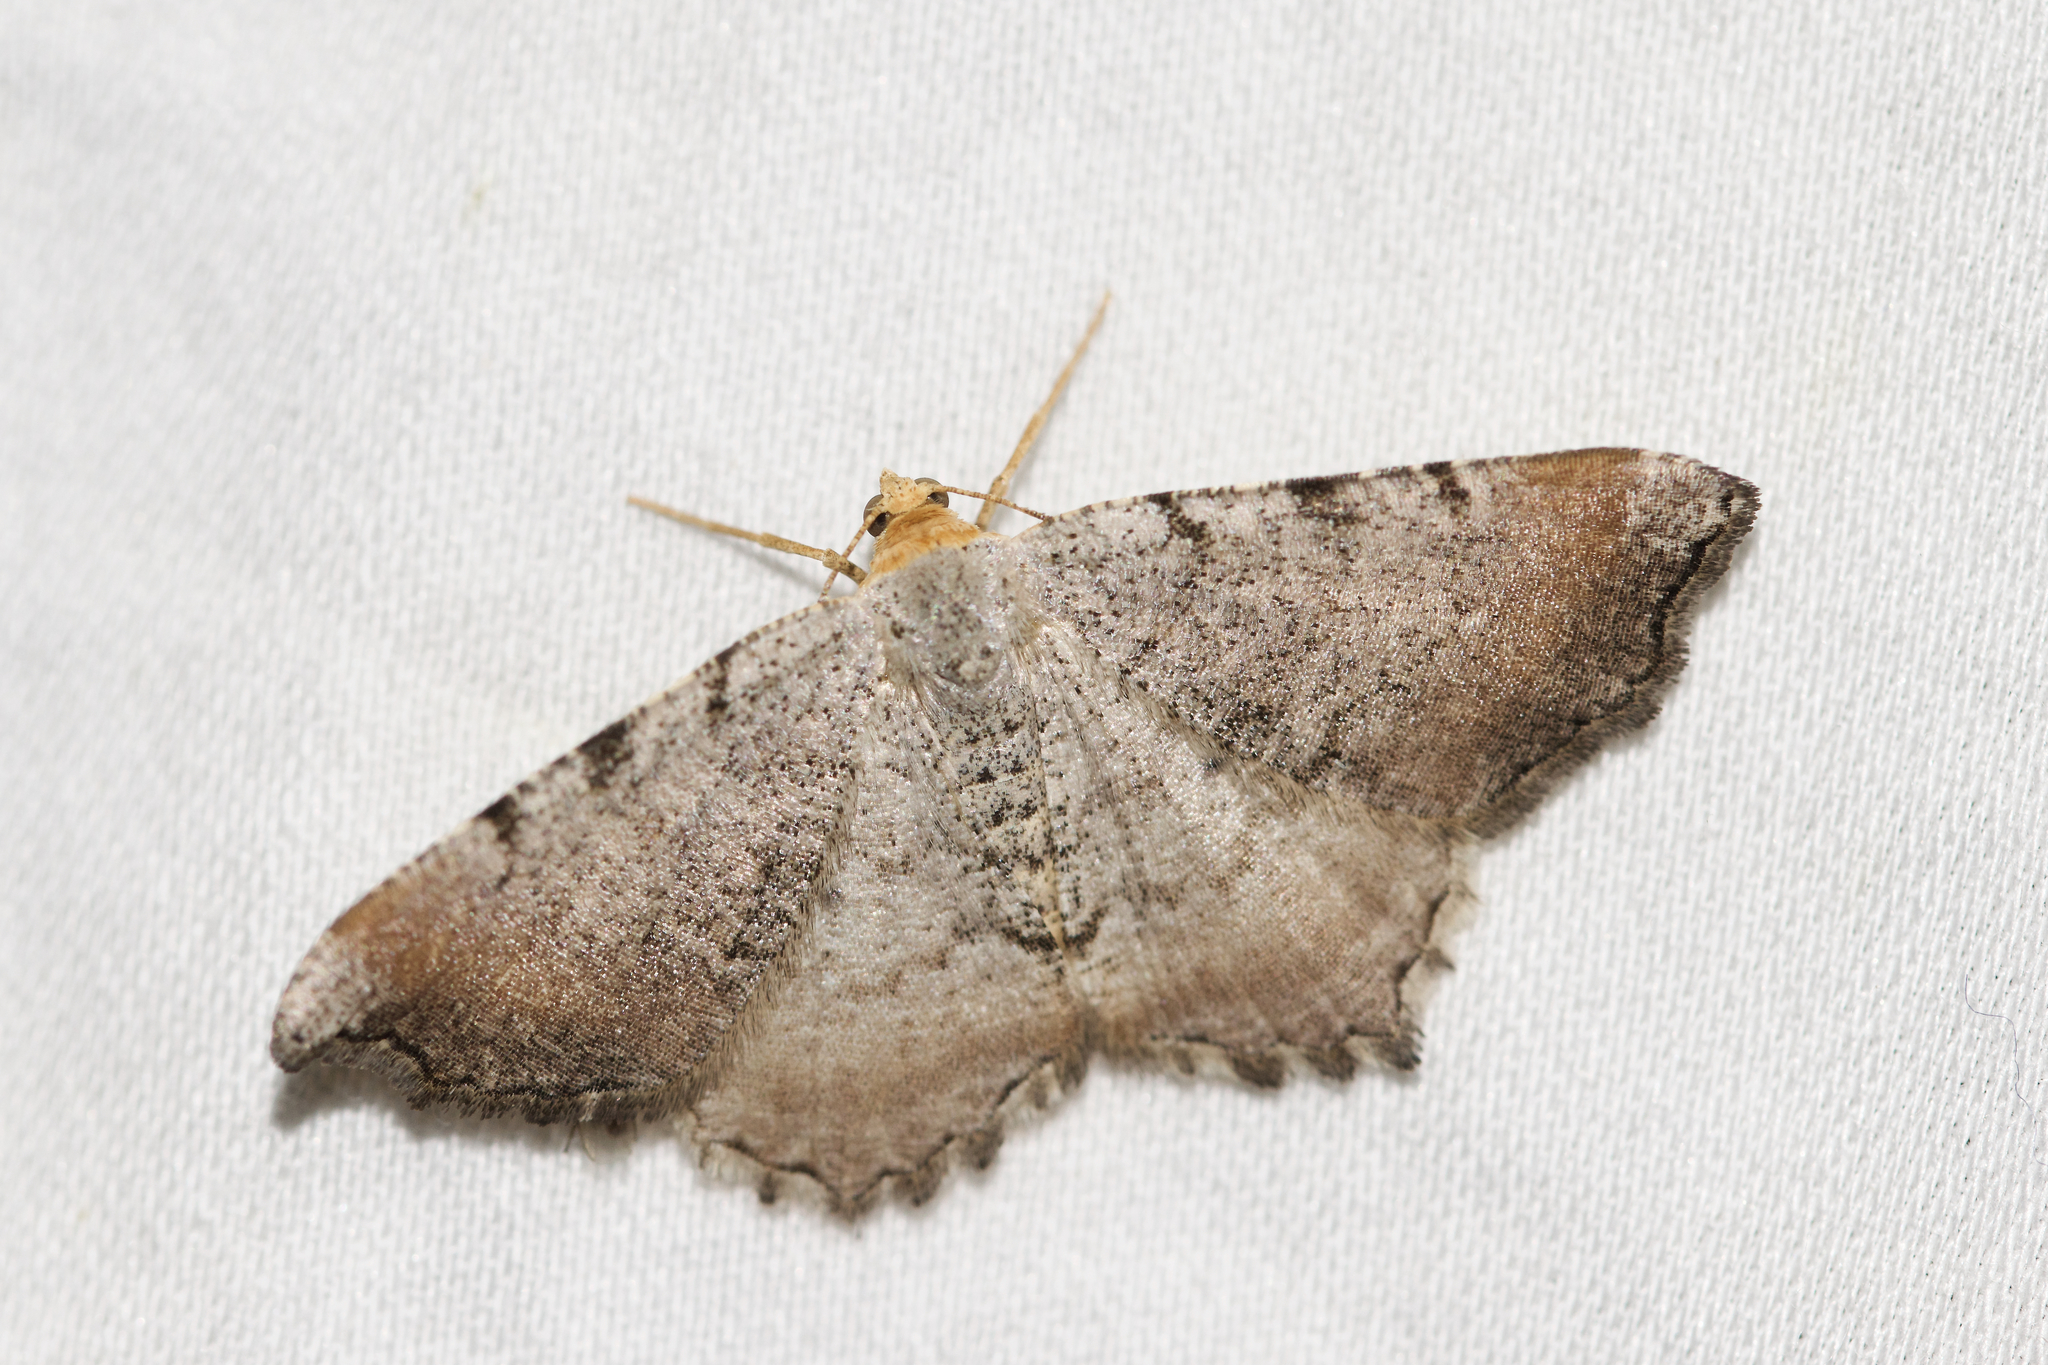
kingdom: Animalia
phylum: Arthropoda
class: Insecta
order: Lepidoptera
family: Geometridae
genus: Macaria
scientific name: Macaria minorata
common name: Minor angle moth
